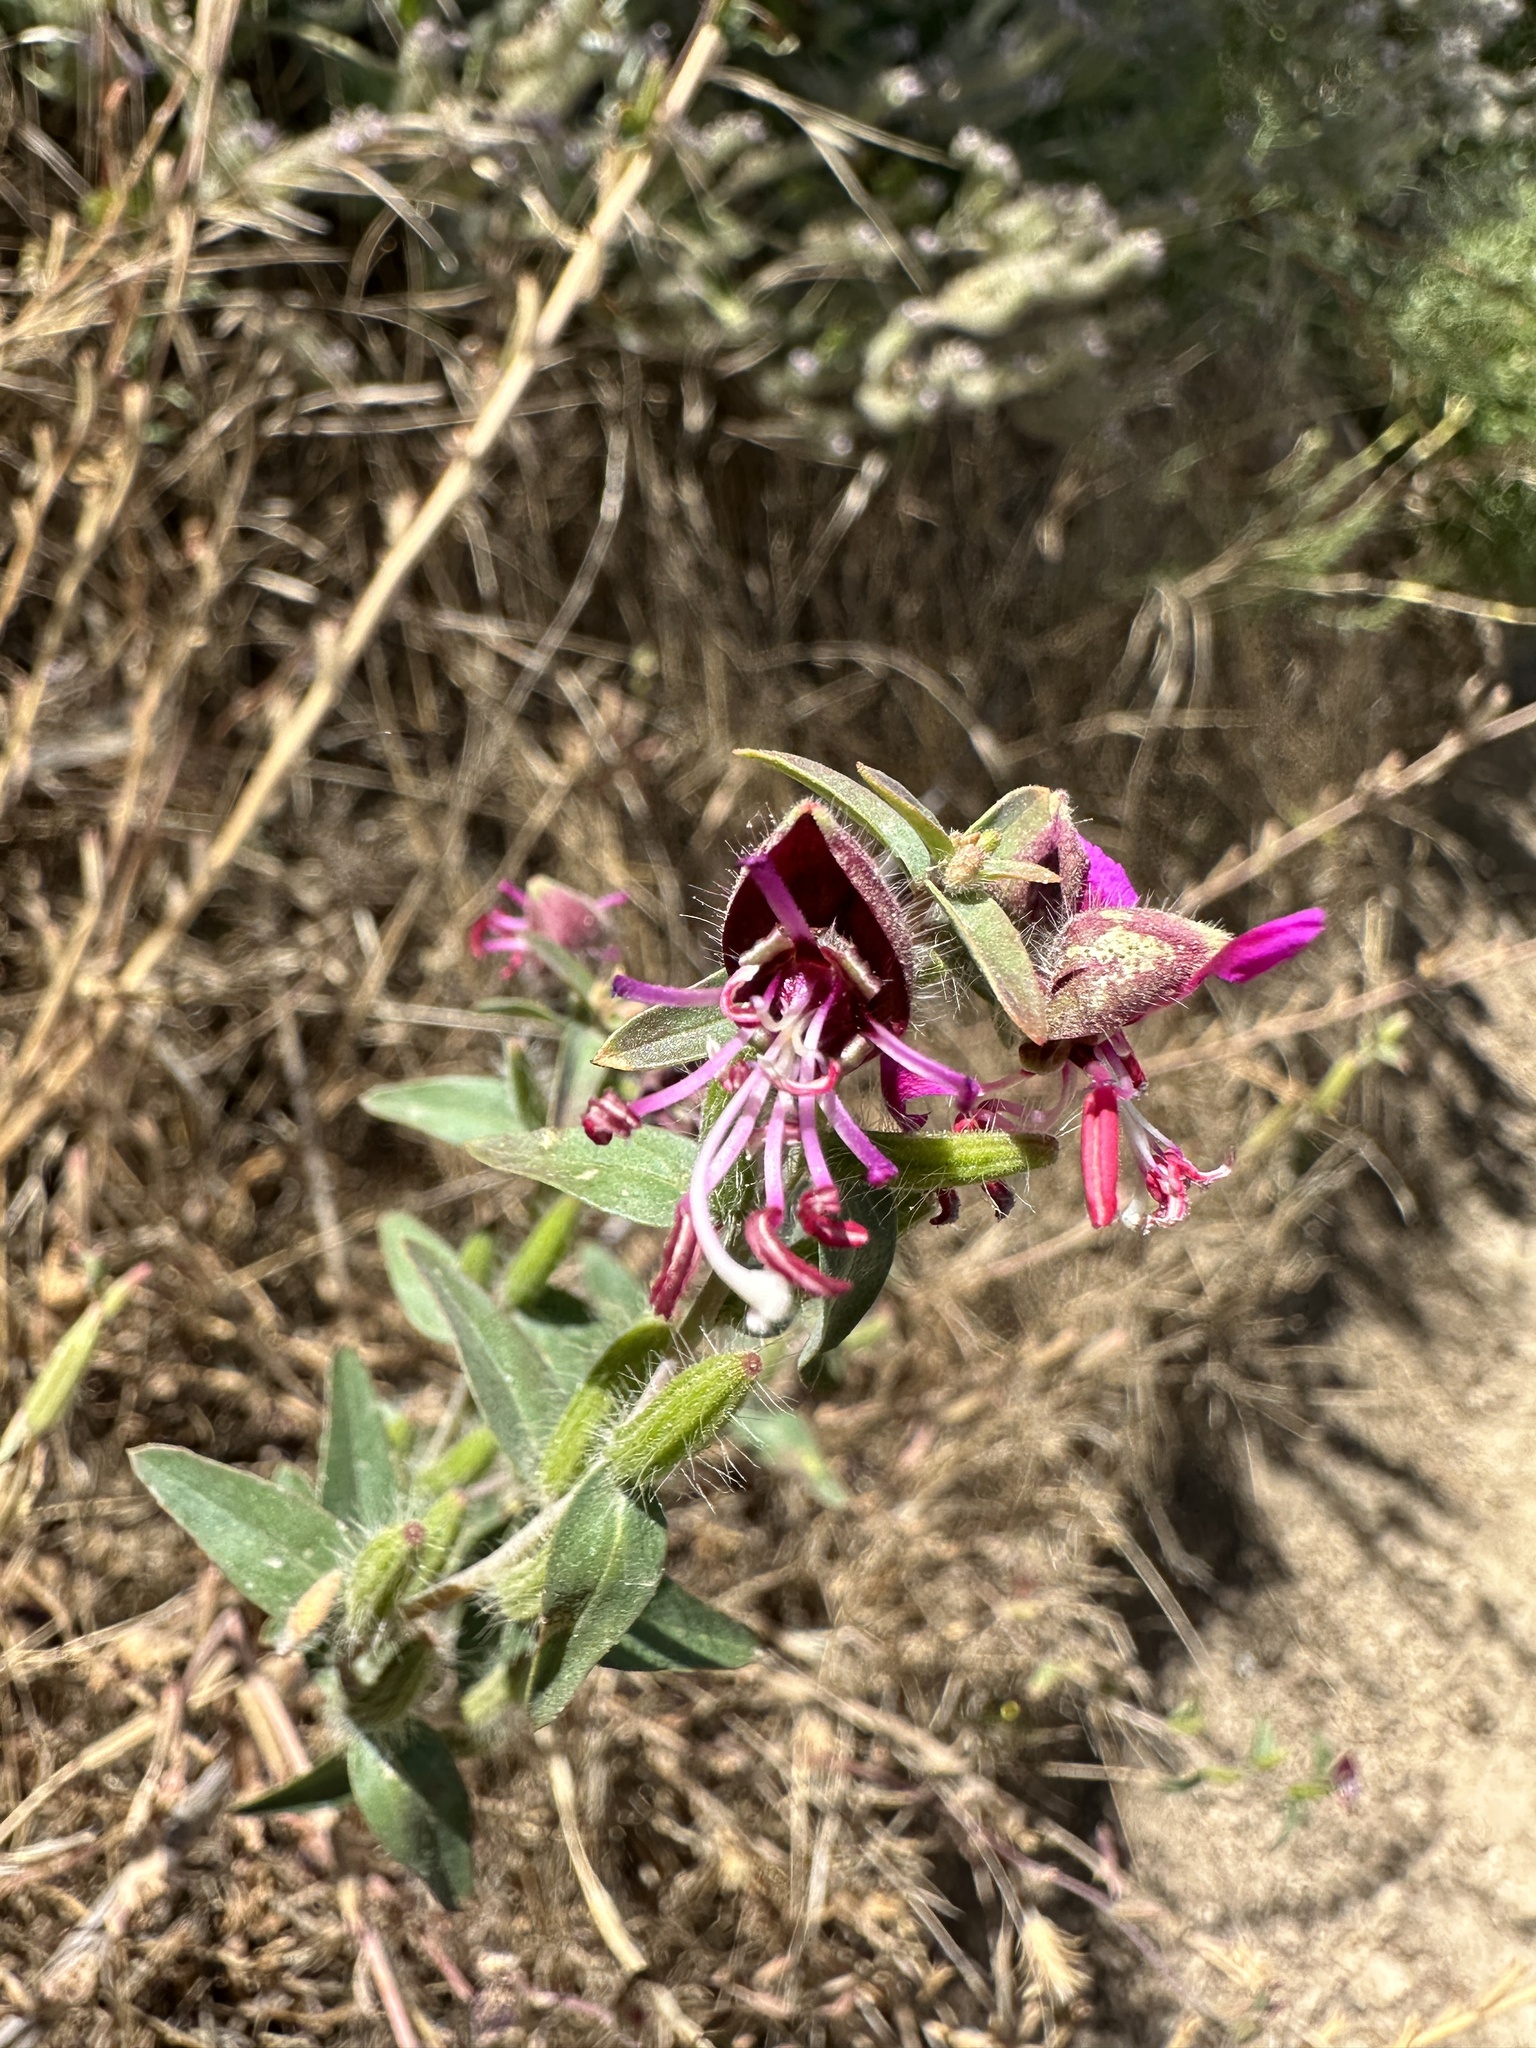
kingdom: Plantae
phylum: Tracheophyta
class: Magnoliopsida
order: Myrtales
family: Onagraceae
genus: Clarkia
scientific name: Clarkia unguiculata
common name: Clarkia
